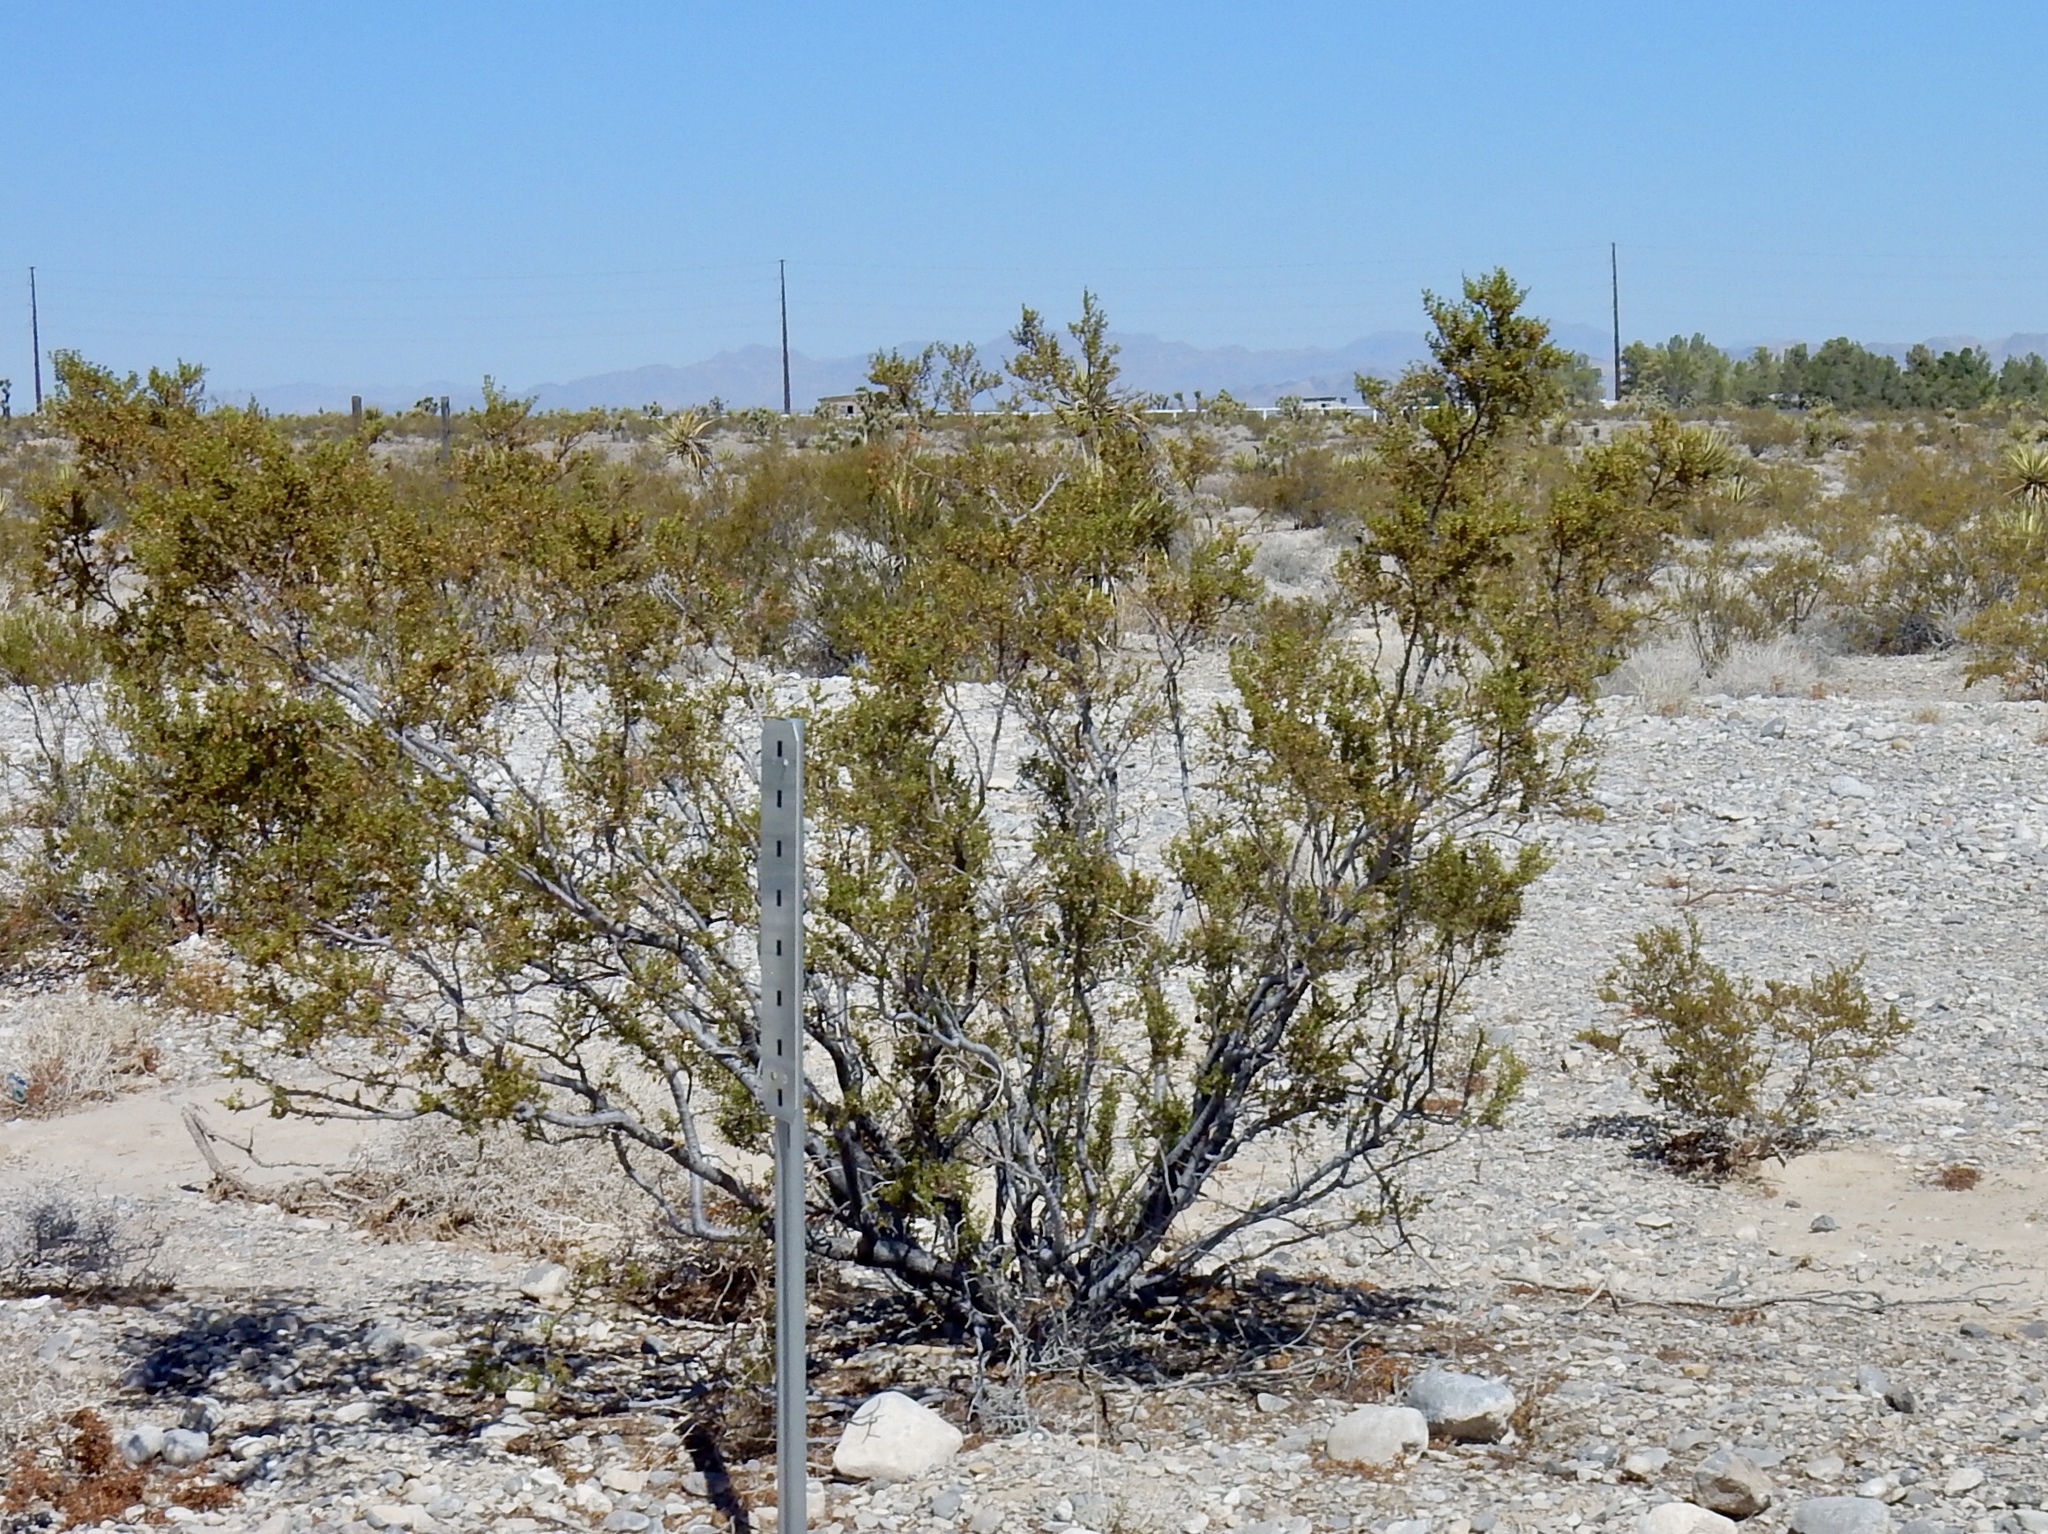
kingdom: Plantae
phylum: Tracheophyta
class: Magnoliopsida
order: Zygophyllales
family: Zygophyllaceae
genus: Larrea
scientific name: Larrea tridentata
